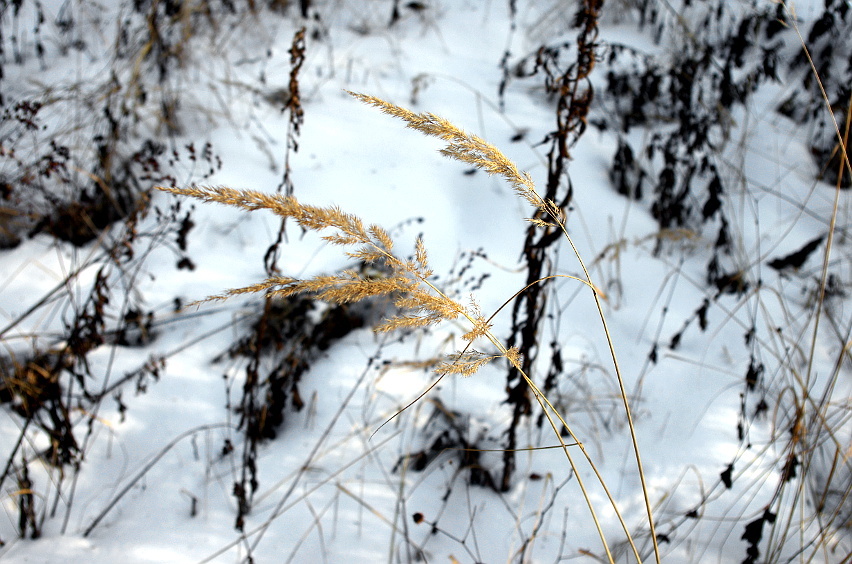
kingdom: Plantae
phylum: Tracheophyta
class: Liliopsida
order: Poales
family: Poaceae
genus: Calamagrostis
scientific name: Calamagrostis epigejos
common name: Wood small-reed
